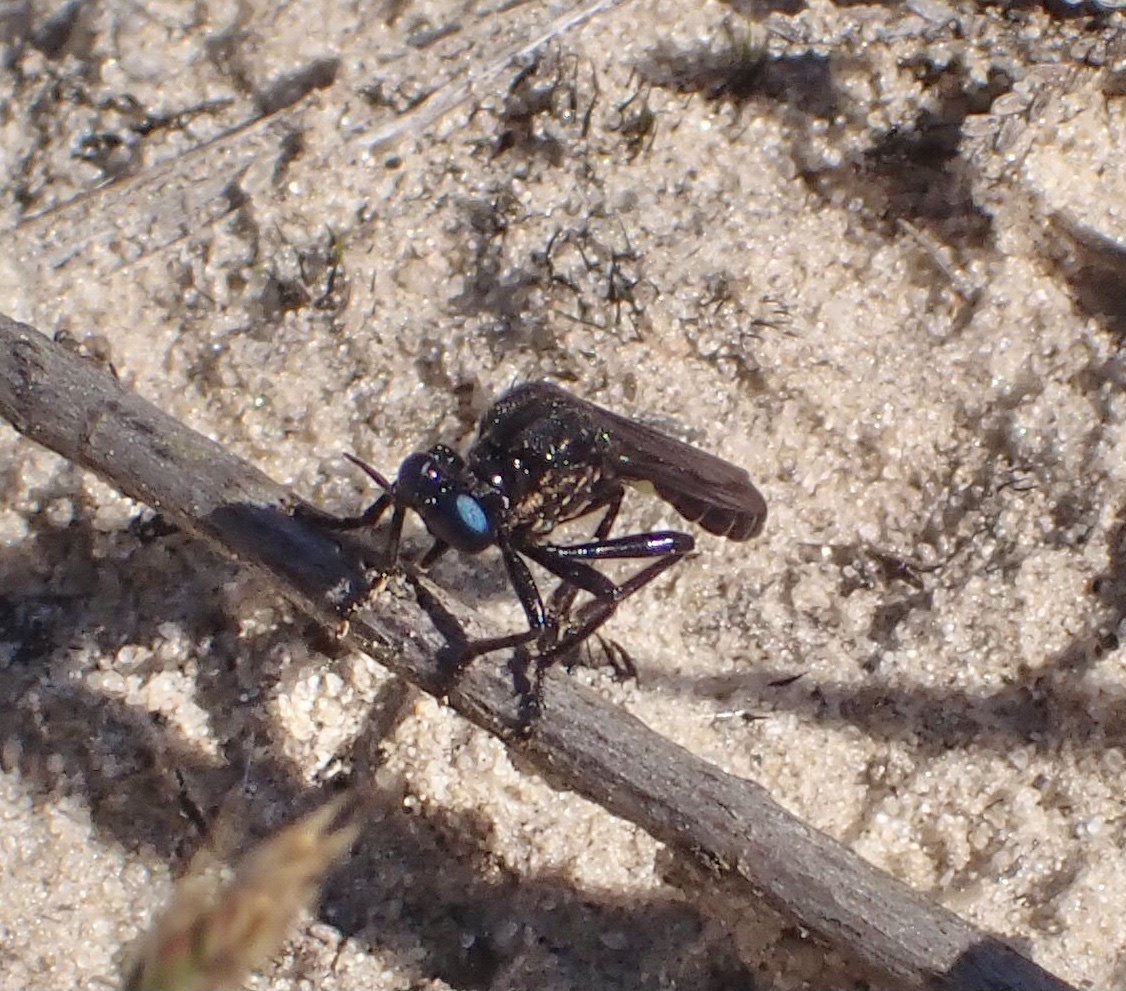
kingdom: Animalia
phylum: Arthropoda
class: Insecta
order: Diptera
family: Asilidae
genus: Dioctria
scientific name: Dioctria atricapilla
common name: Violet black-legged
